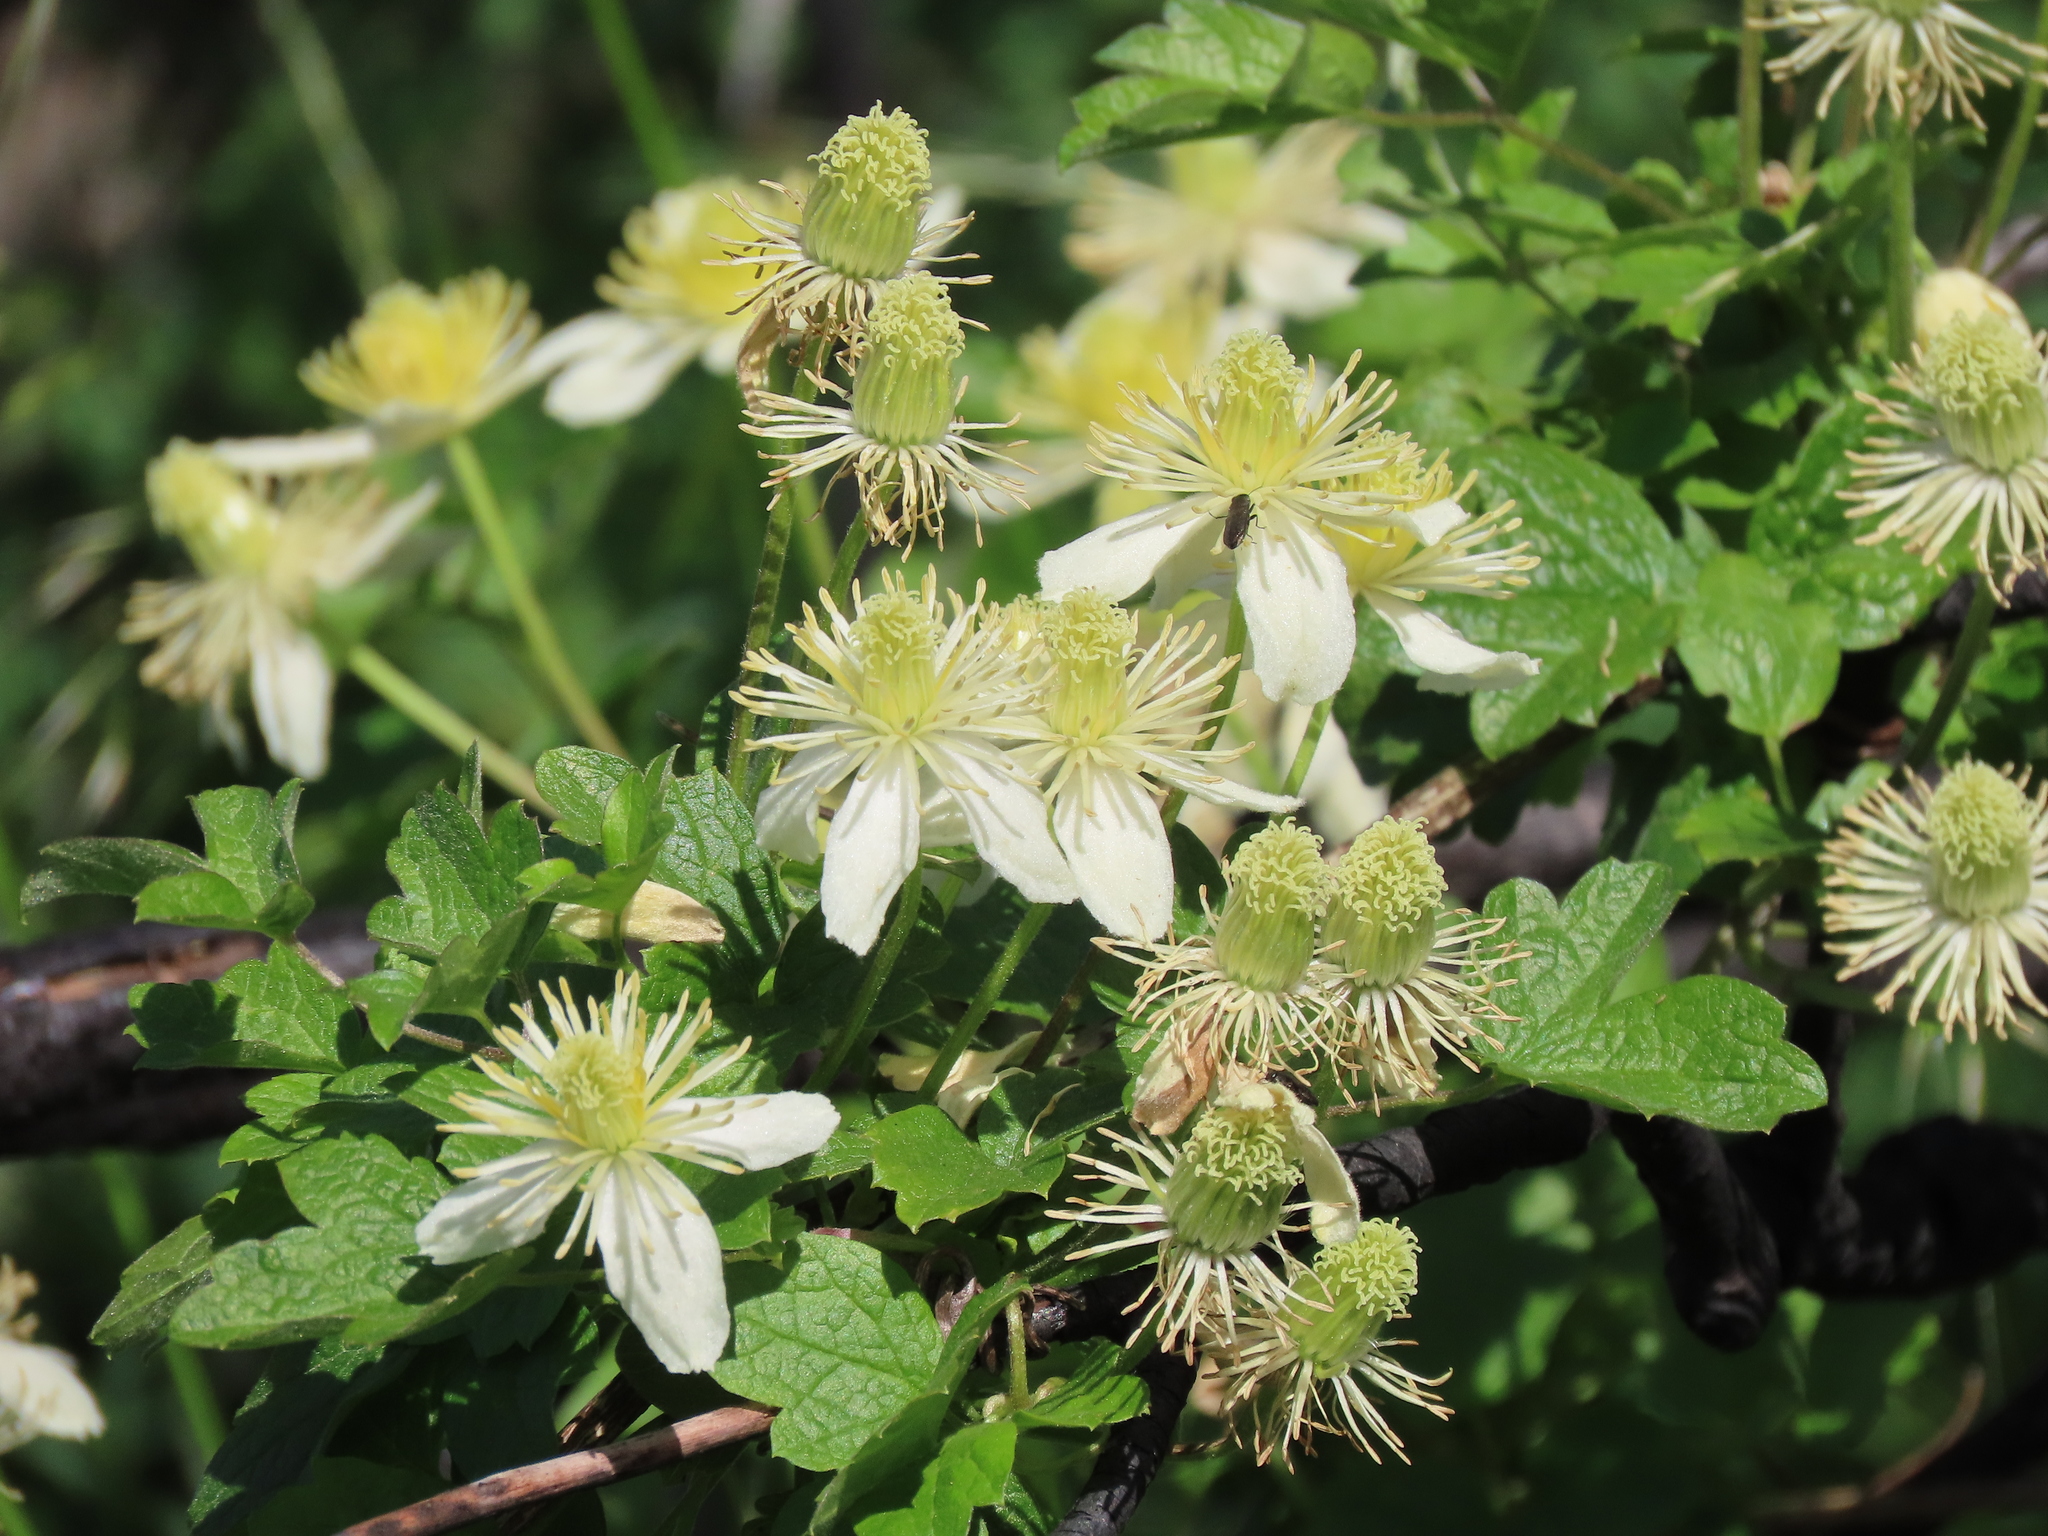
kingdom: Plantae
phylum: Tracheophyta
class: Magnoliopsida
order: Ranunculales
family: Ranunculaceae
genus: Clematis
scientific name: Clematis lasiantha
